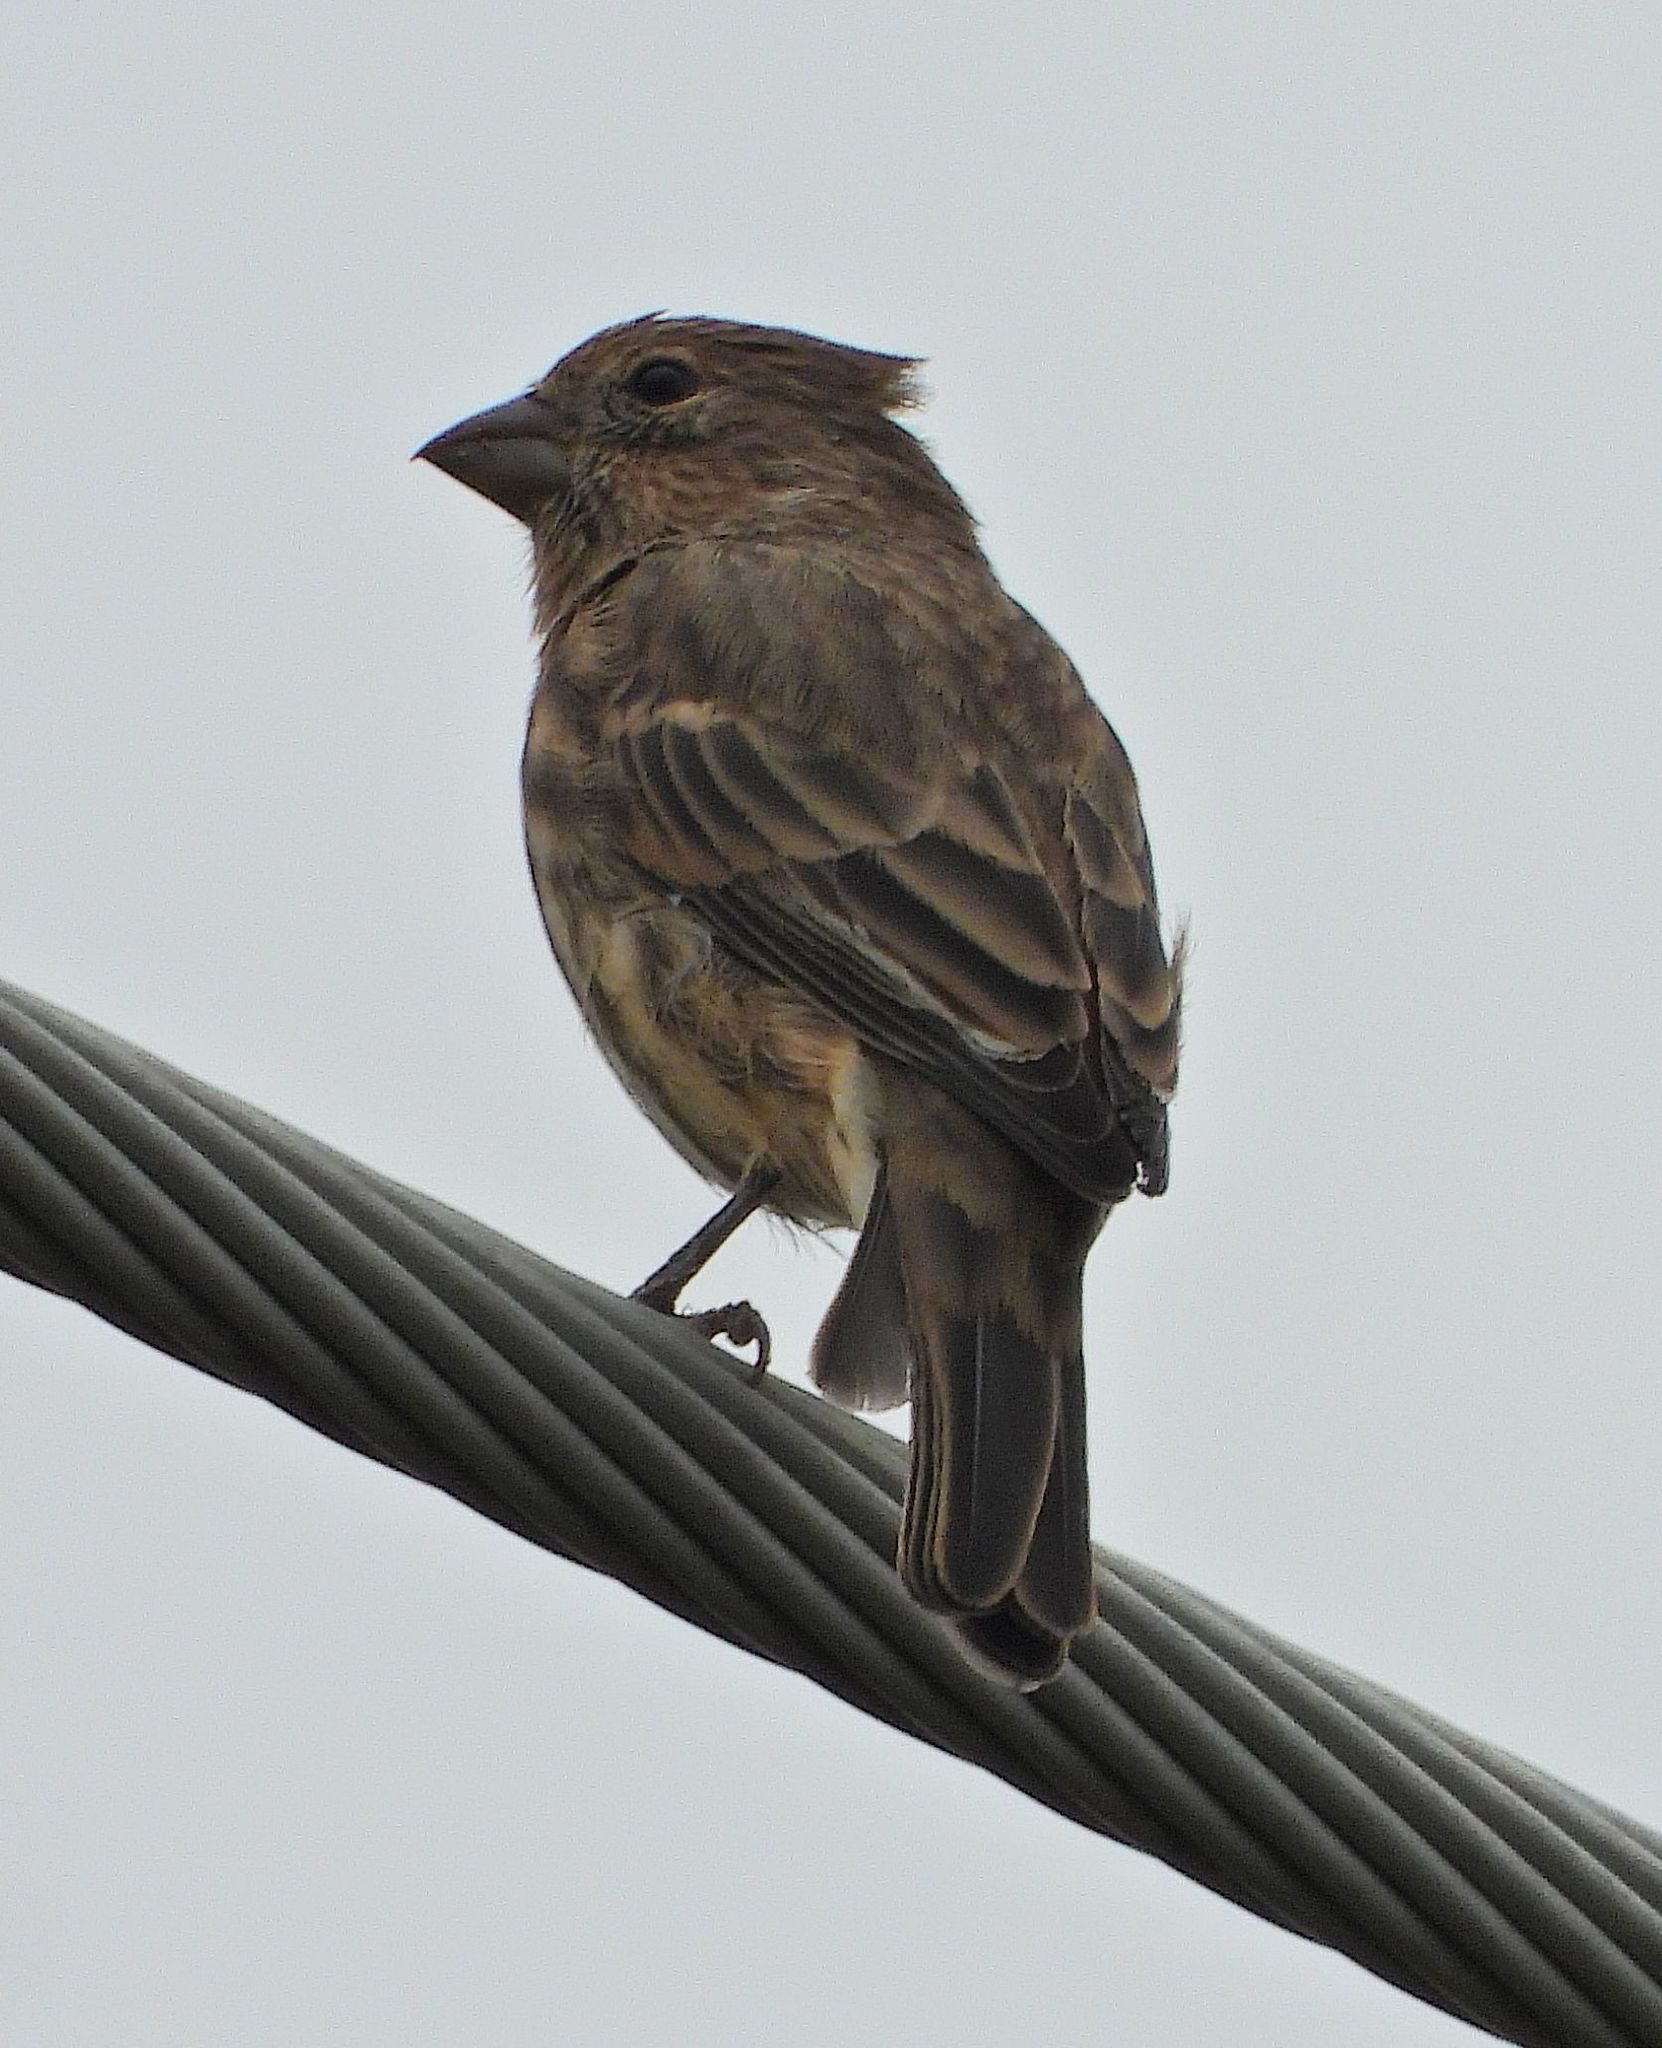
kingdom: Animalia
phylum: Chordata
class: Aves
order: Passeriformes
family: Fringillidae
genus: Haemorhous
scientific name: Haemorhous mexicanus
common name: House finch
